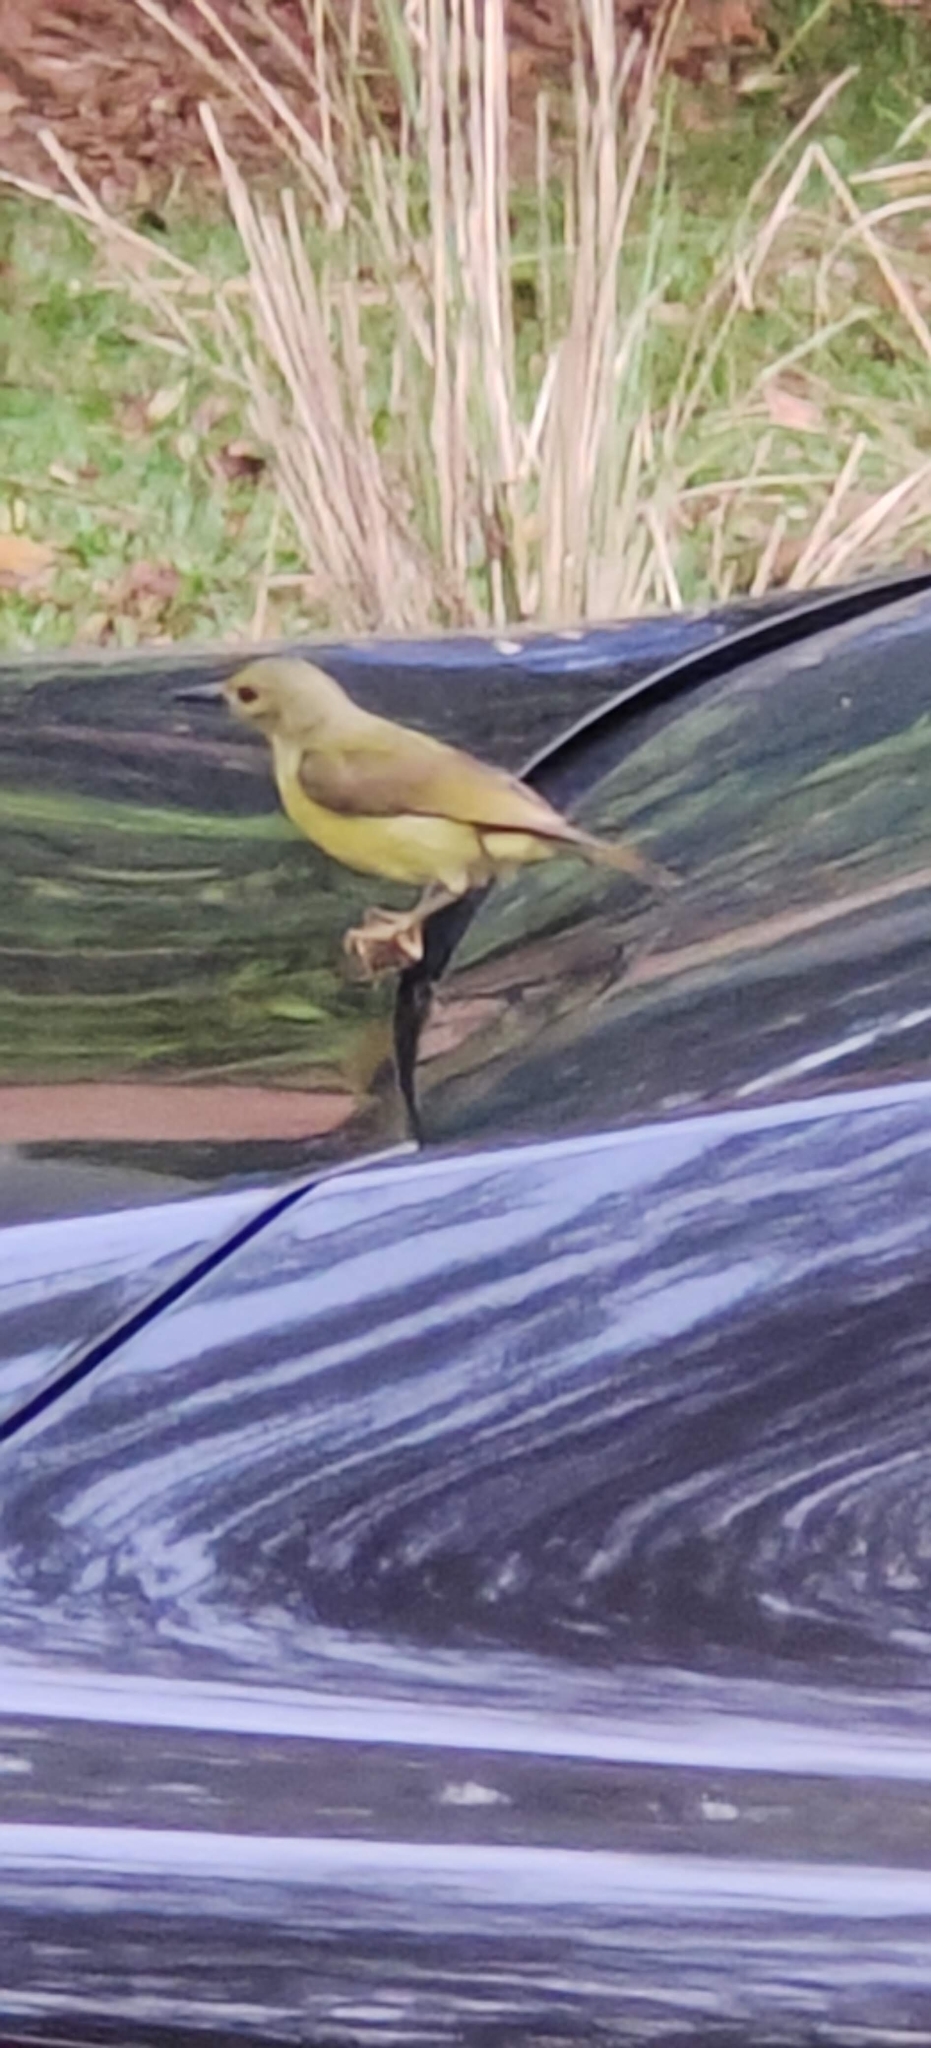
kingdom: Animalia
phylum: Chordata
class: Aves
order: Passeriformes
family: Nectariniidae
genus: Anthreptes
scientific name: Anthreptes malacensis
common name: Brown-throated sunbird
